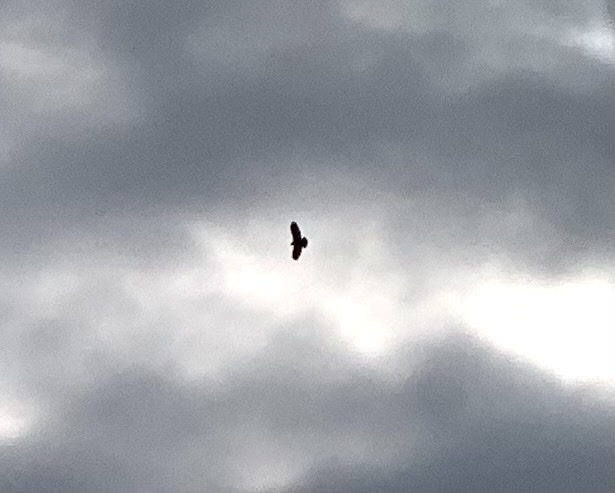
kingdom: Animalia
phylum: Chordata
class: Aves
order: Accipitriformes
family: Accipitridae
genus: Buteo
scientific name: Buteo buteo
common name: Common buzzard
